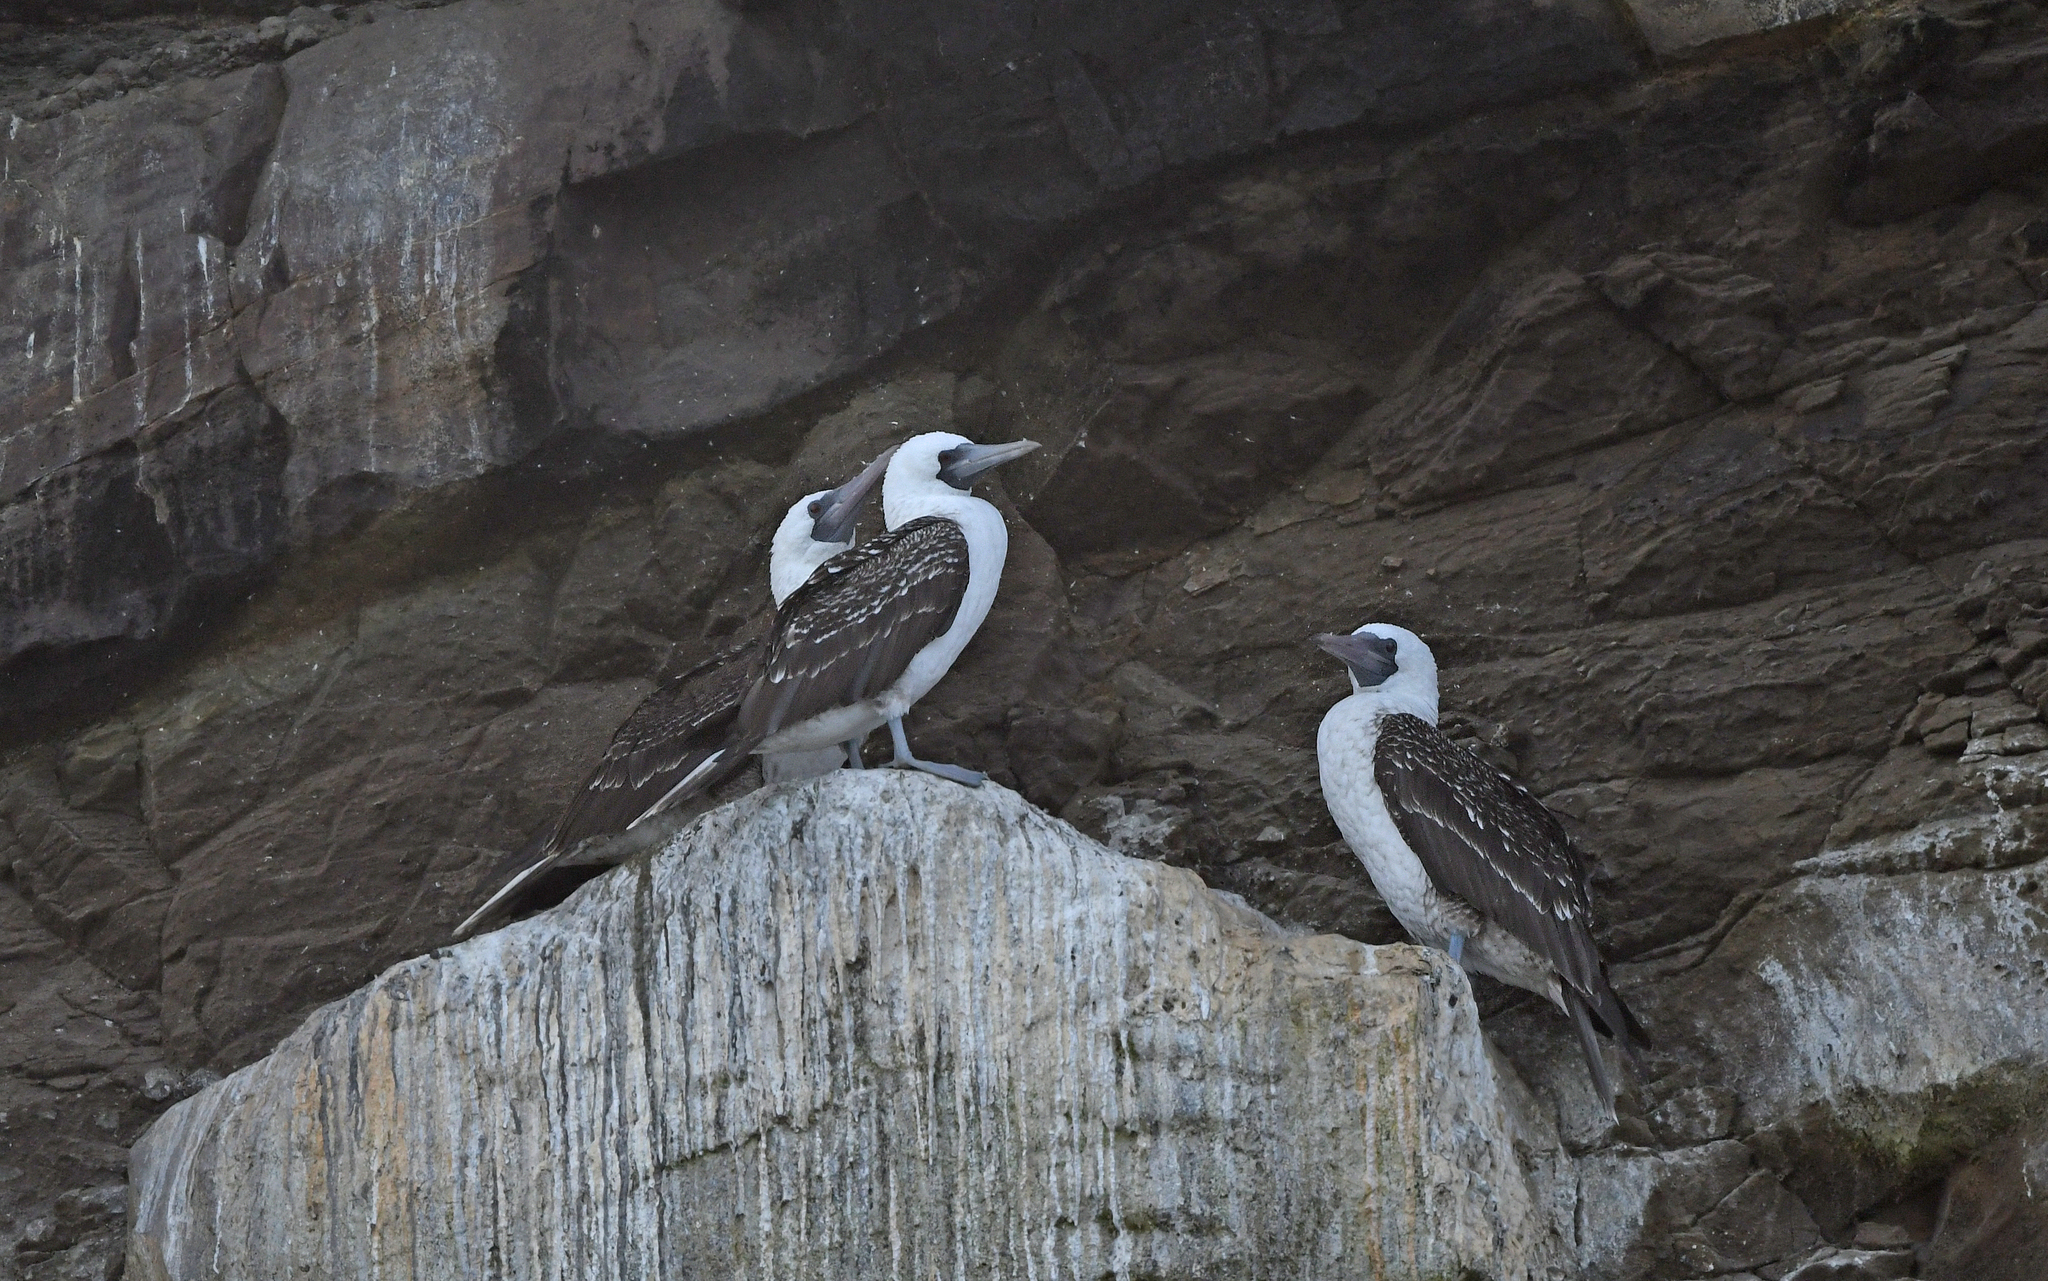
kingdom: Animalia
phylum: Chordata
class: Aves
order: Suliformes
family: Sulidae
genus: Sula
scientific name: Sula variegata
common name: Peruvian booby
